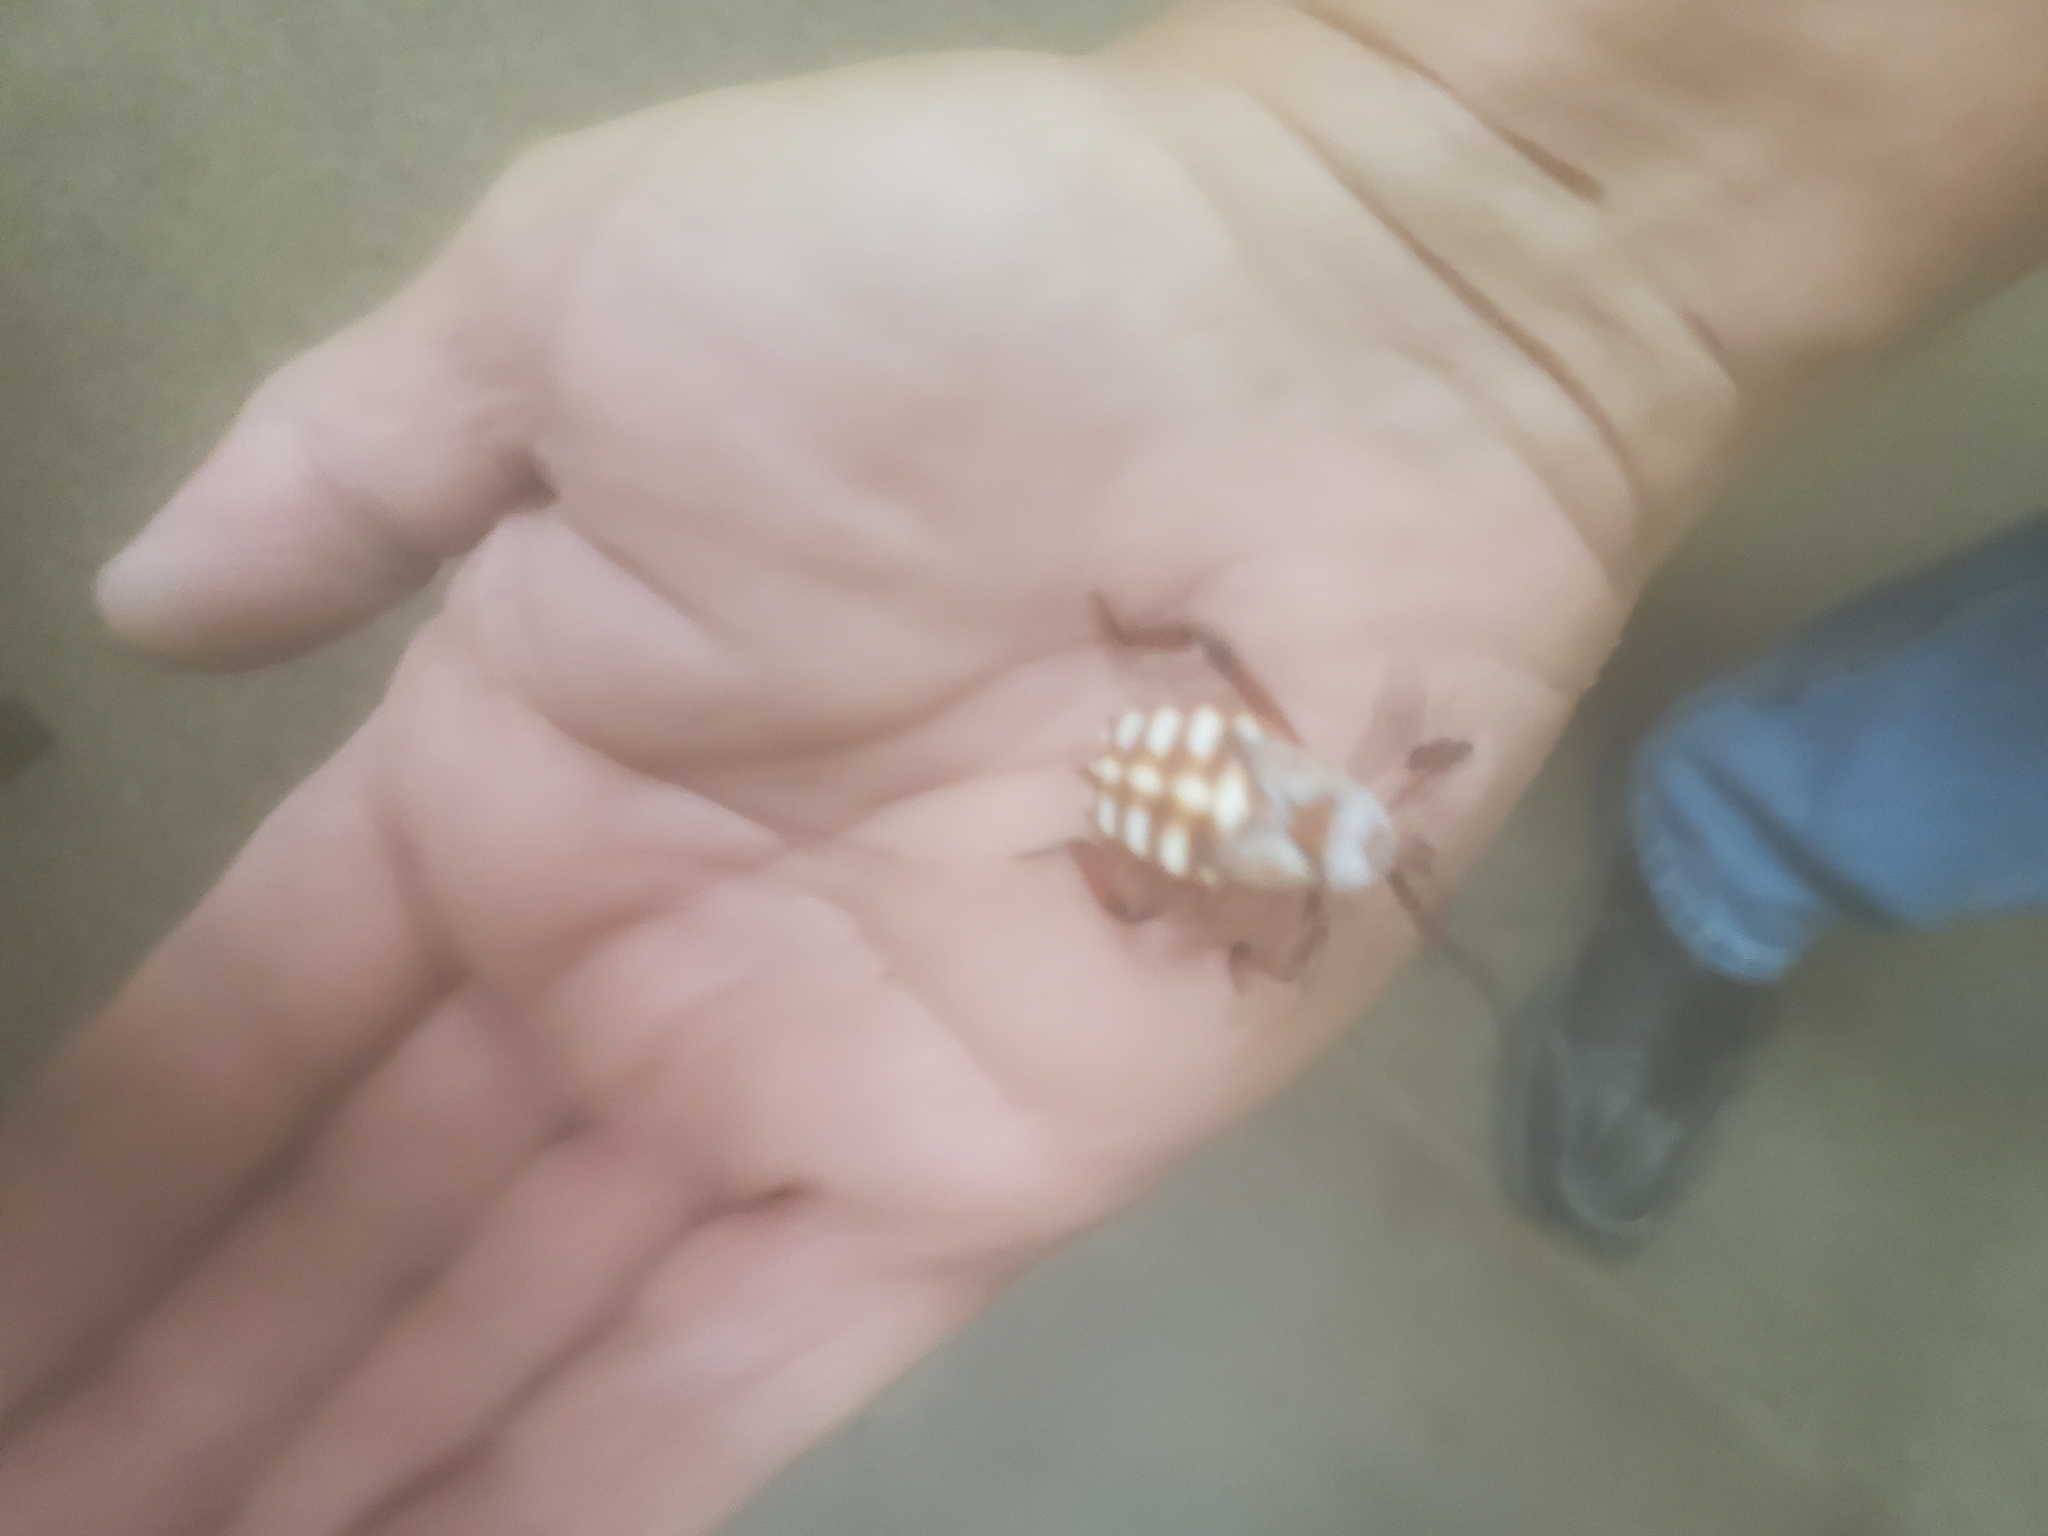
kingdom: Animalia
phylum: Arthropoda
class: Insecta
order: Hemiptera
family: Coreidae
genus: Thasus
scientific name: Thasus neocalifornicus
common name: Giant mesquite bug
